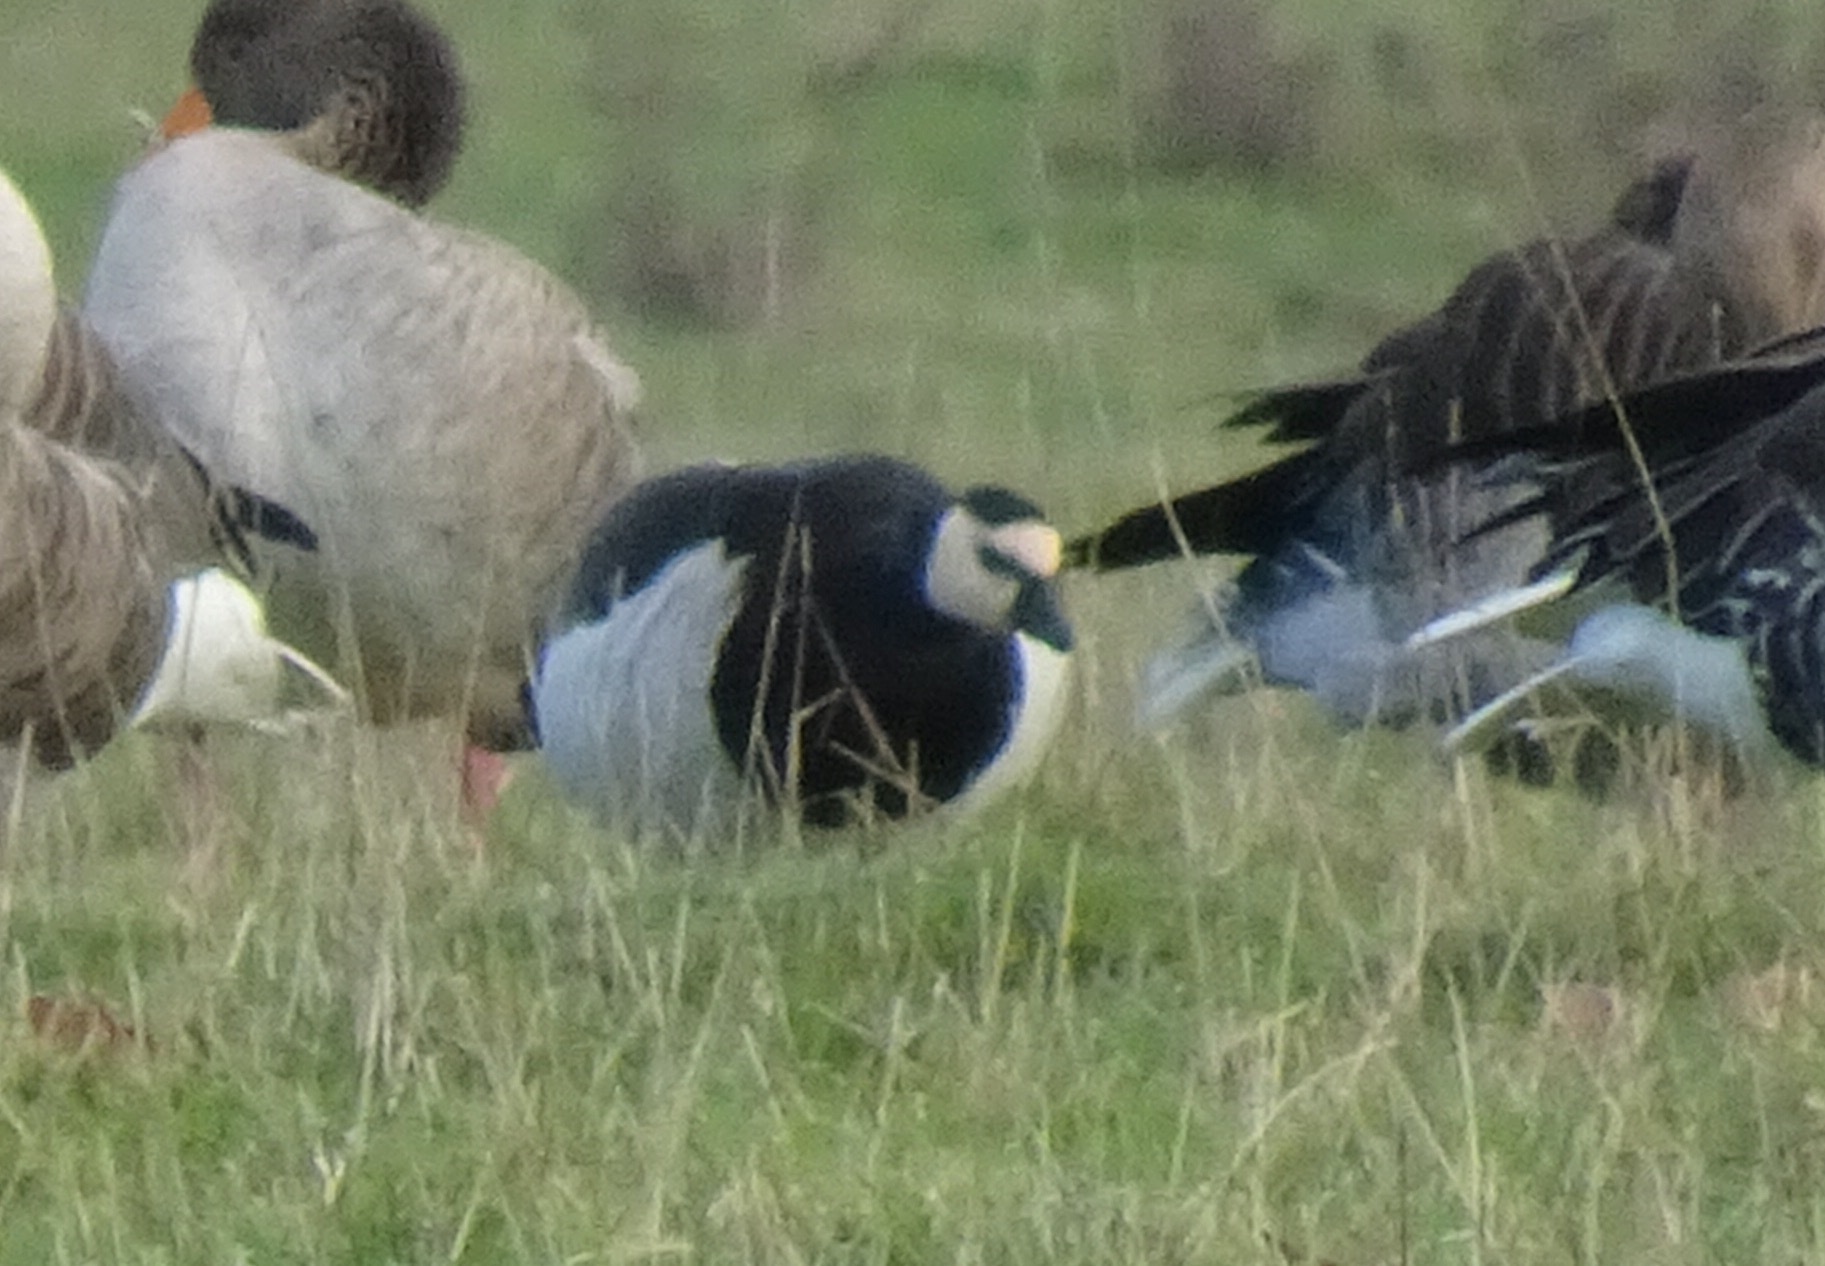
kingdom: Animalia
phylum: Chordata
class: Aves
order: Anseriformes
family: Anatidae
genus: Branta
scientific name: Branta leucopsis
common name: Barnacle goose
